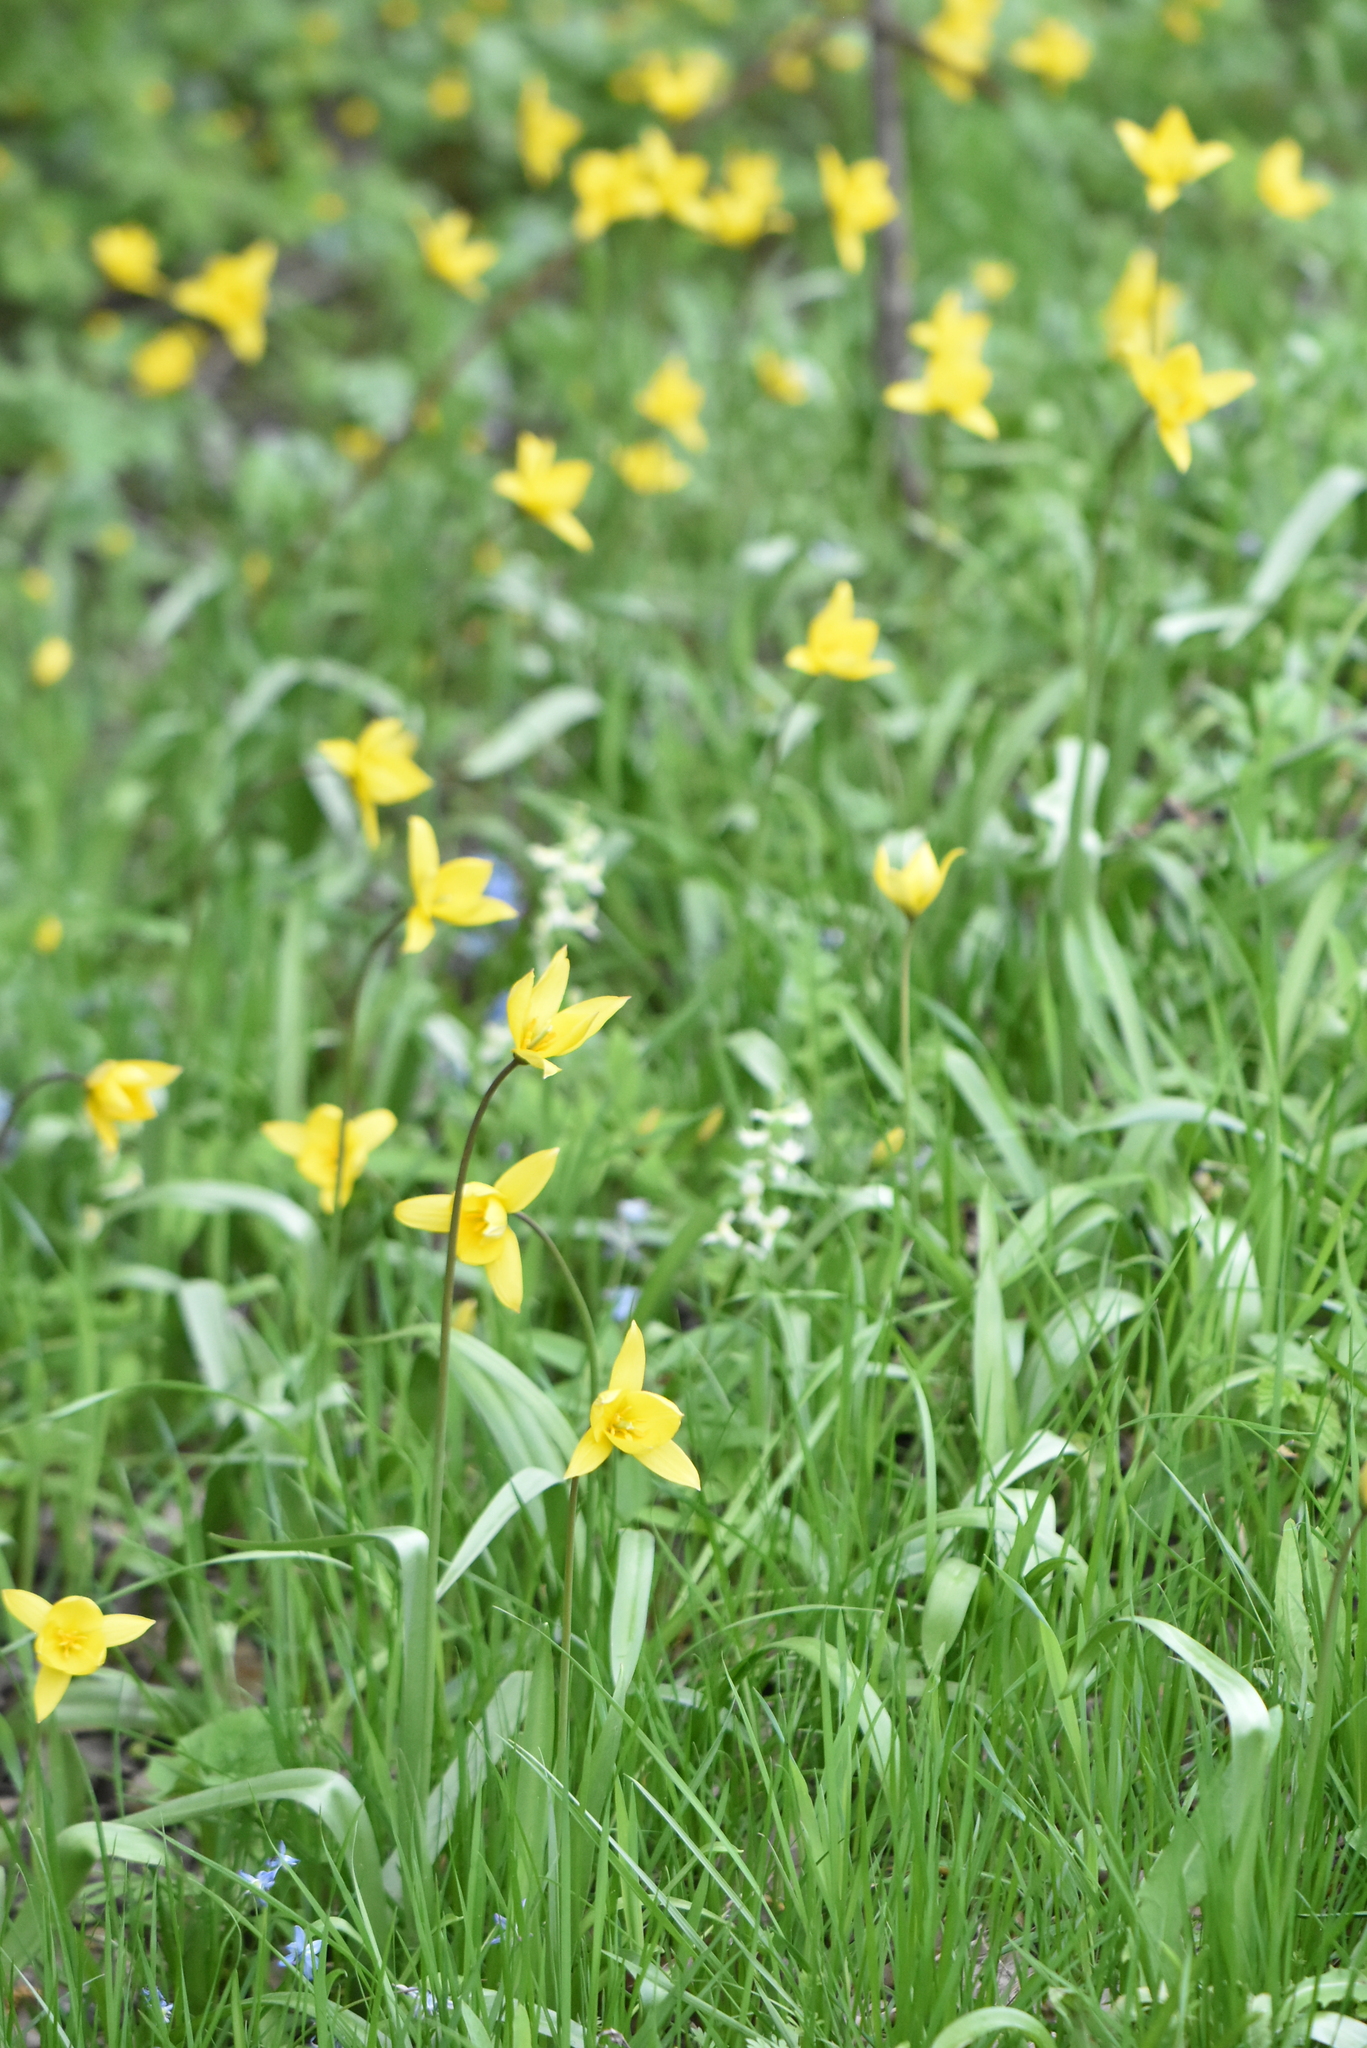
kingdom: Plantae
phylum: Tracheophyta
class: Liliopsida
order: Liliales
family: Liliaceae
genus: Tulipa
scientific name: Tulipa sylvestris
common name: Wild tulip
